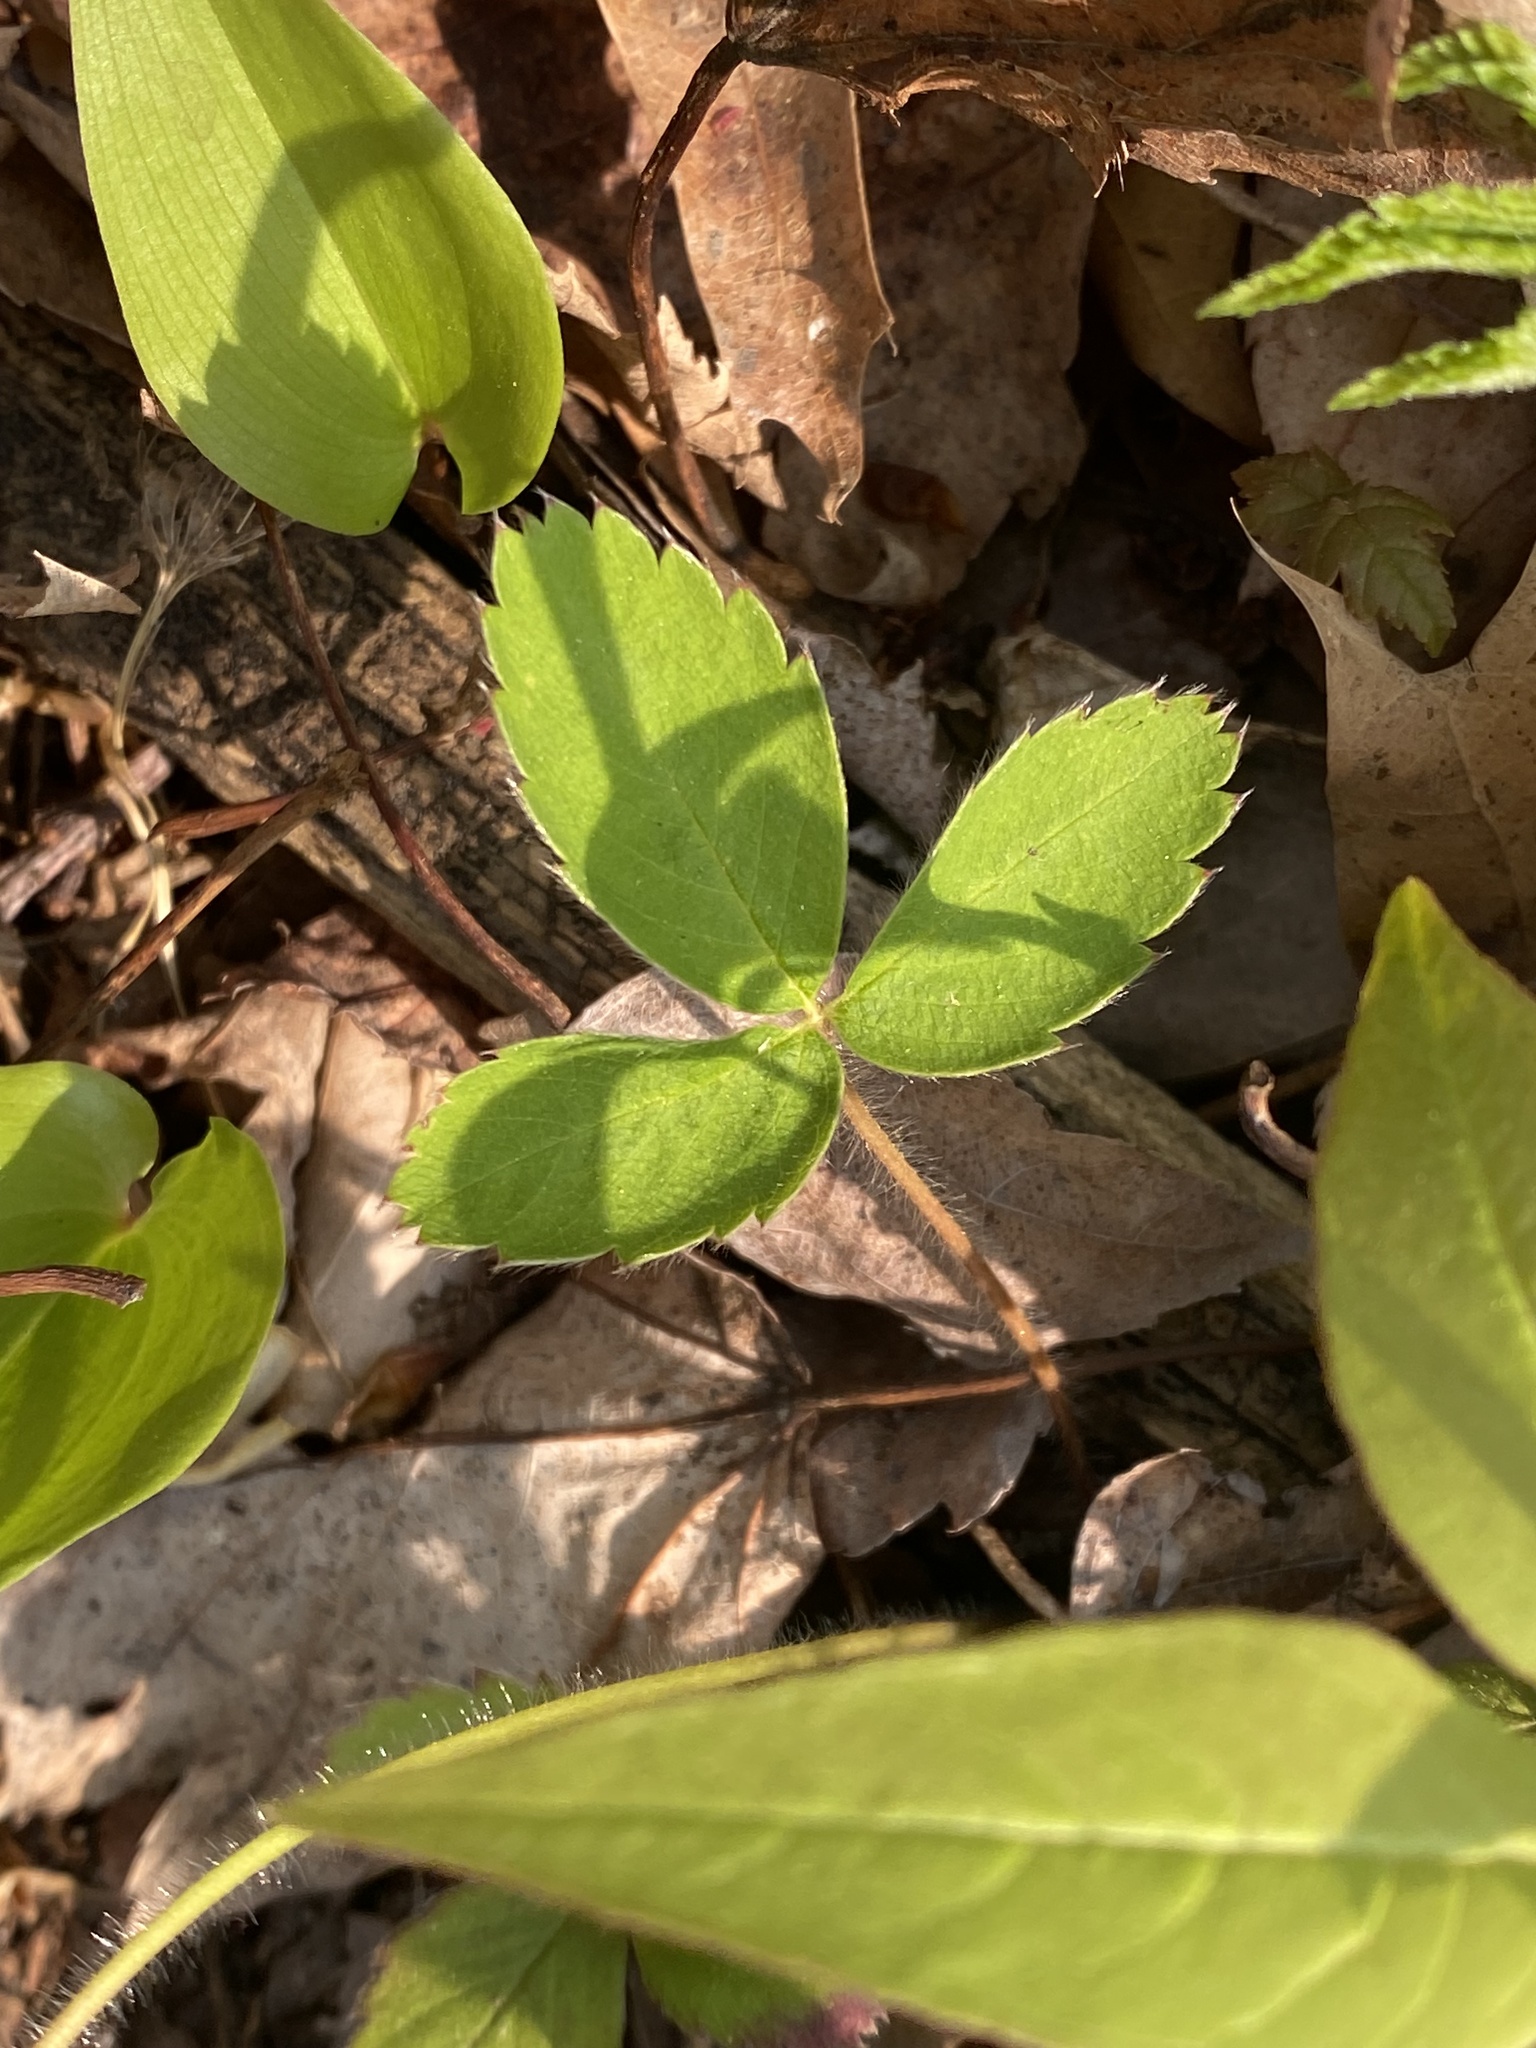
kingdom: Plantae
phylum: Tracheophyta
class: Magnoliopsida
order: Rosales
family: Rosaceae
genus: Fragaria
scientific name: Fragaria virginiana
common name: Thickleaved wild strawberry
